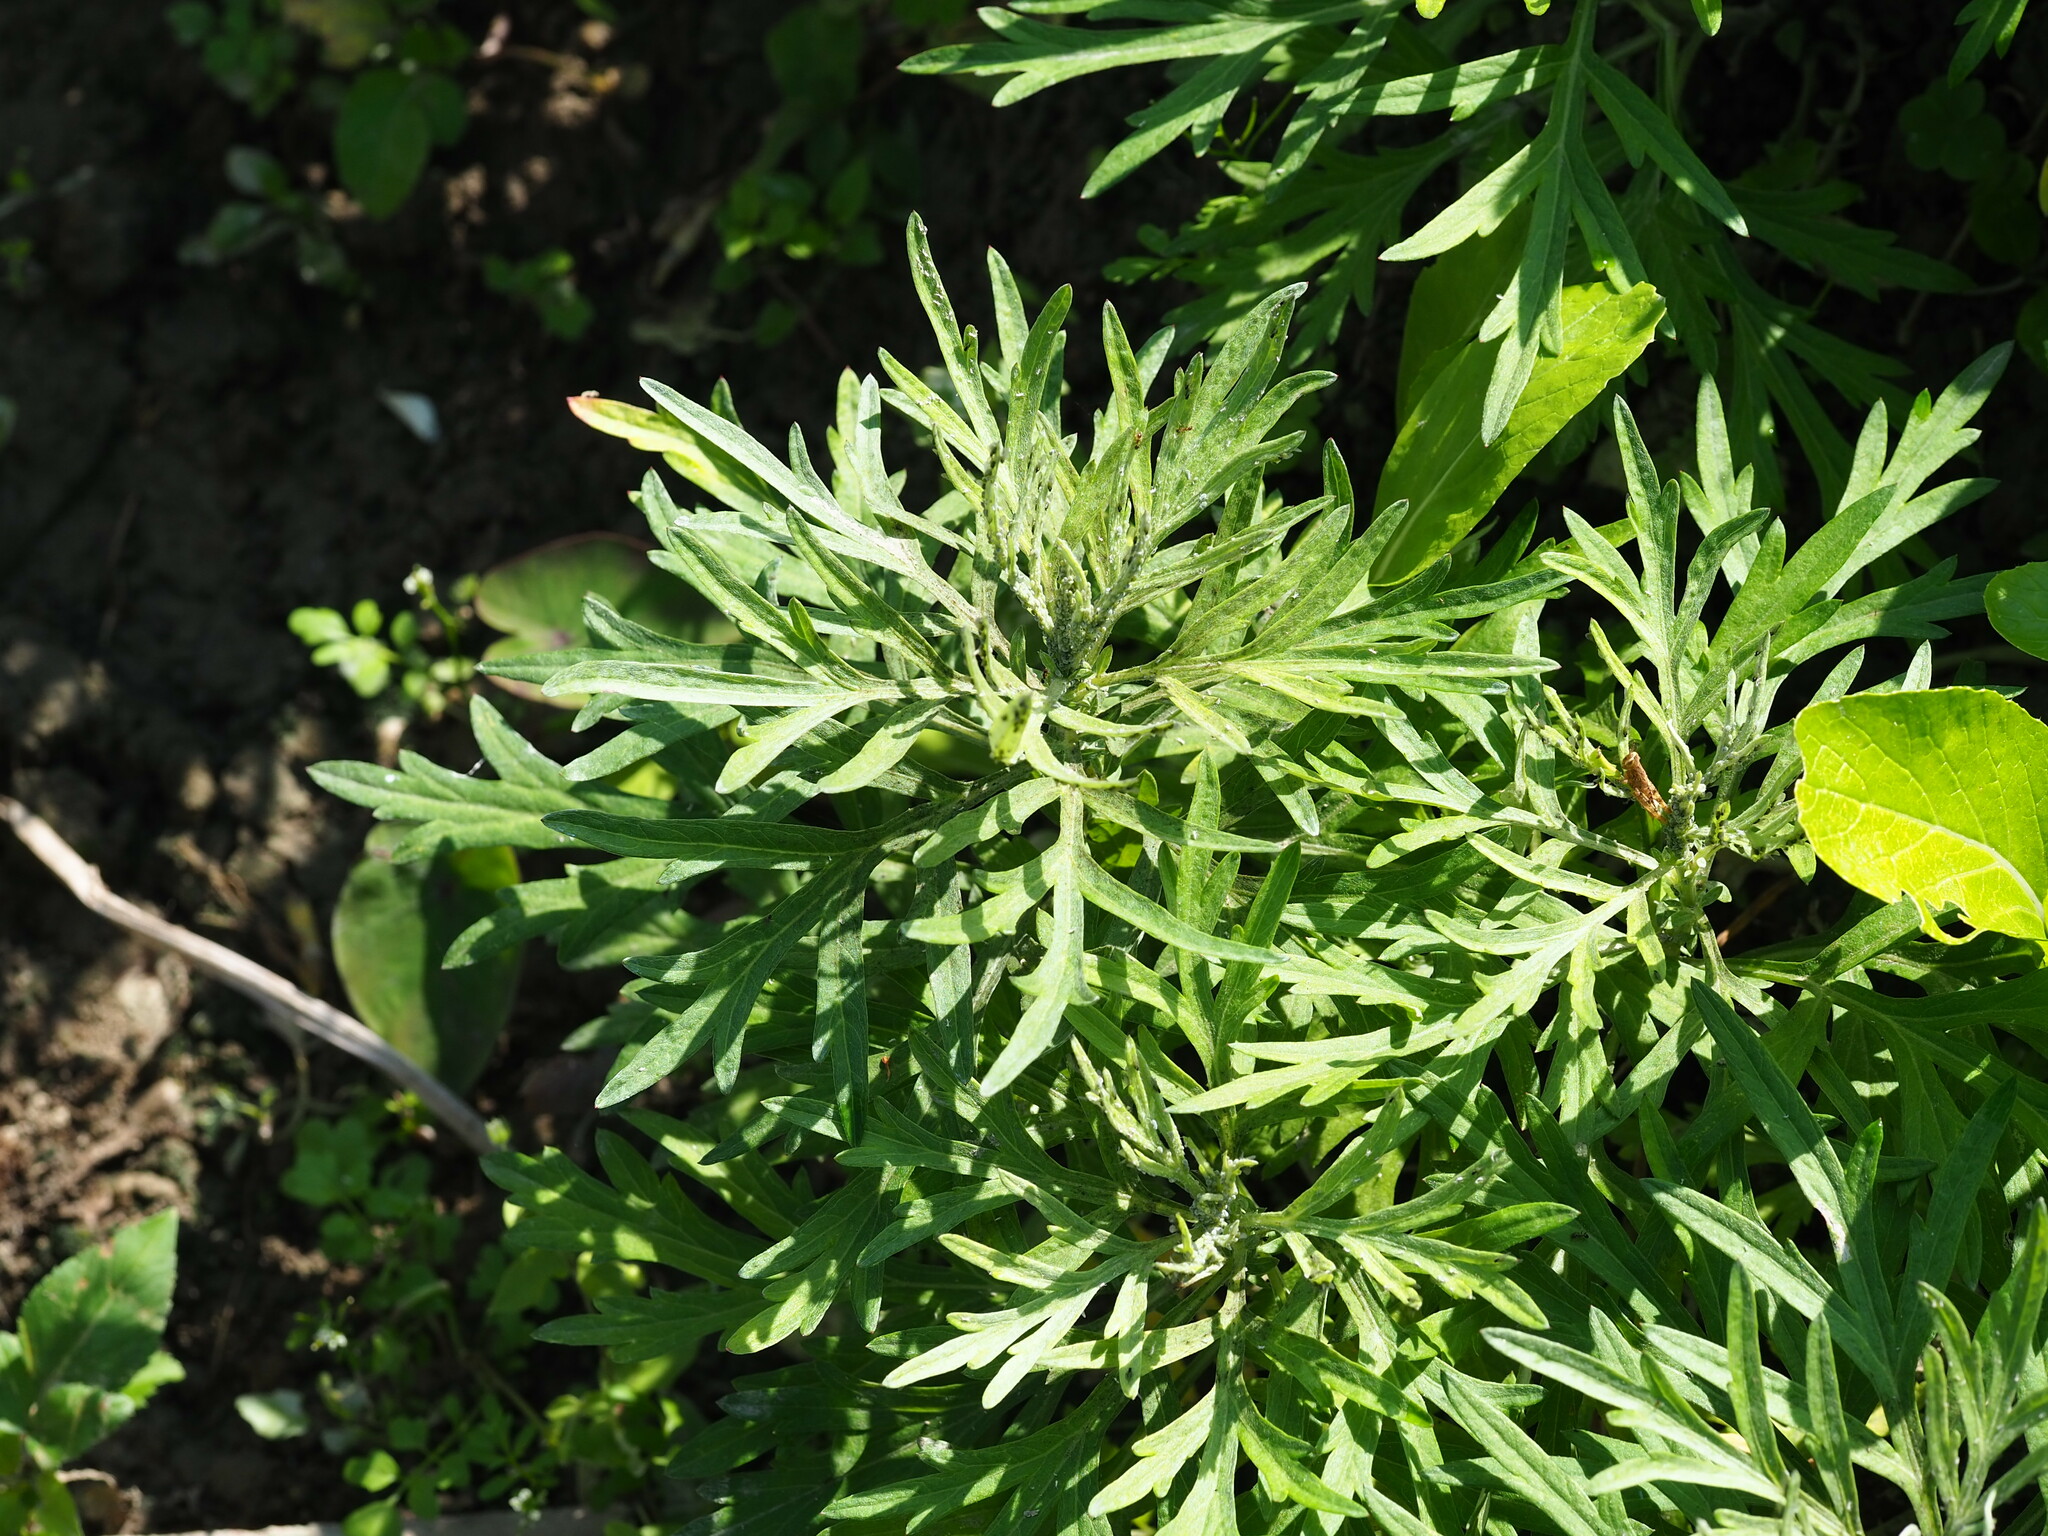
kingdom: Plantae
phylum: Tracheophyta
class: Magnoliopsida
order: Asterales
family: Asteraceae
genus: Artemisia
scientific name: Artemisia indica
